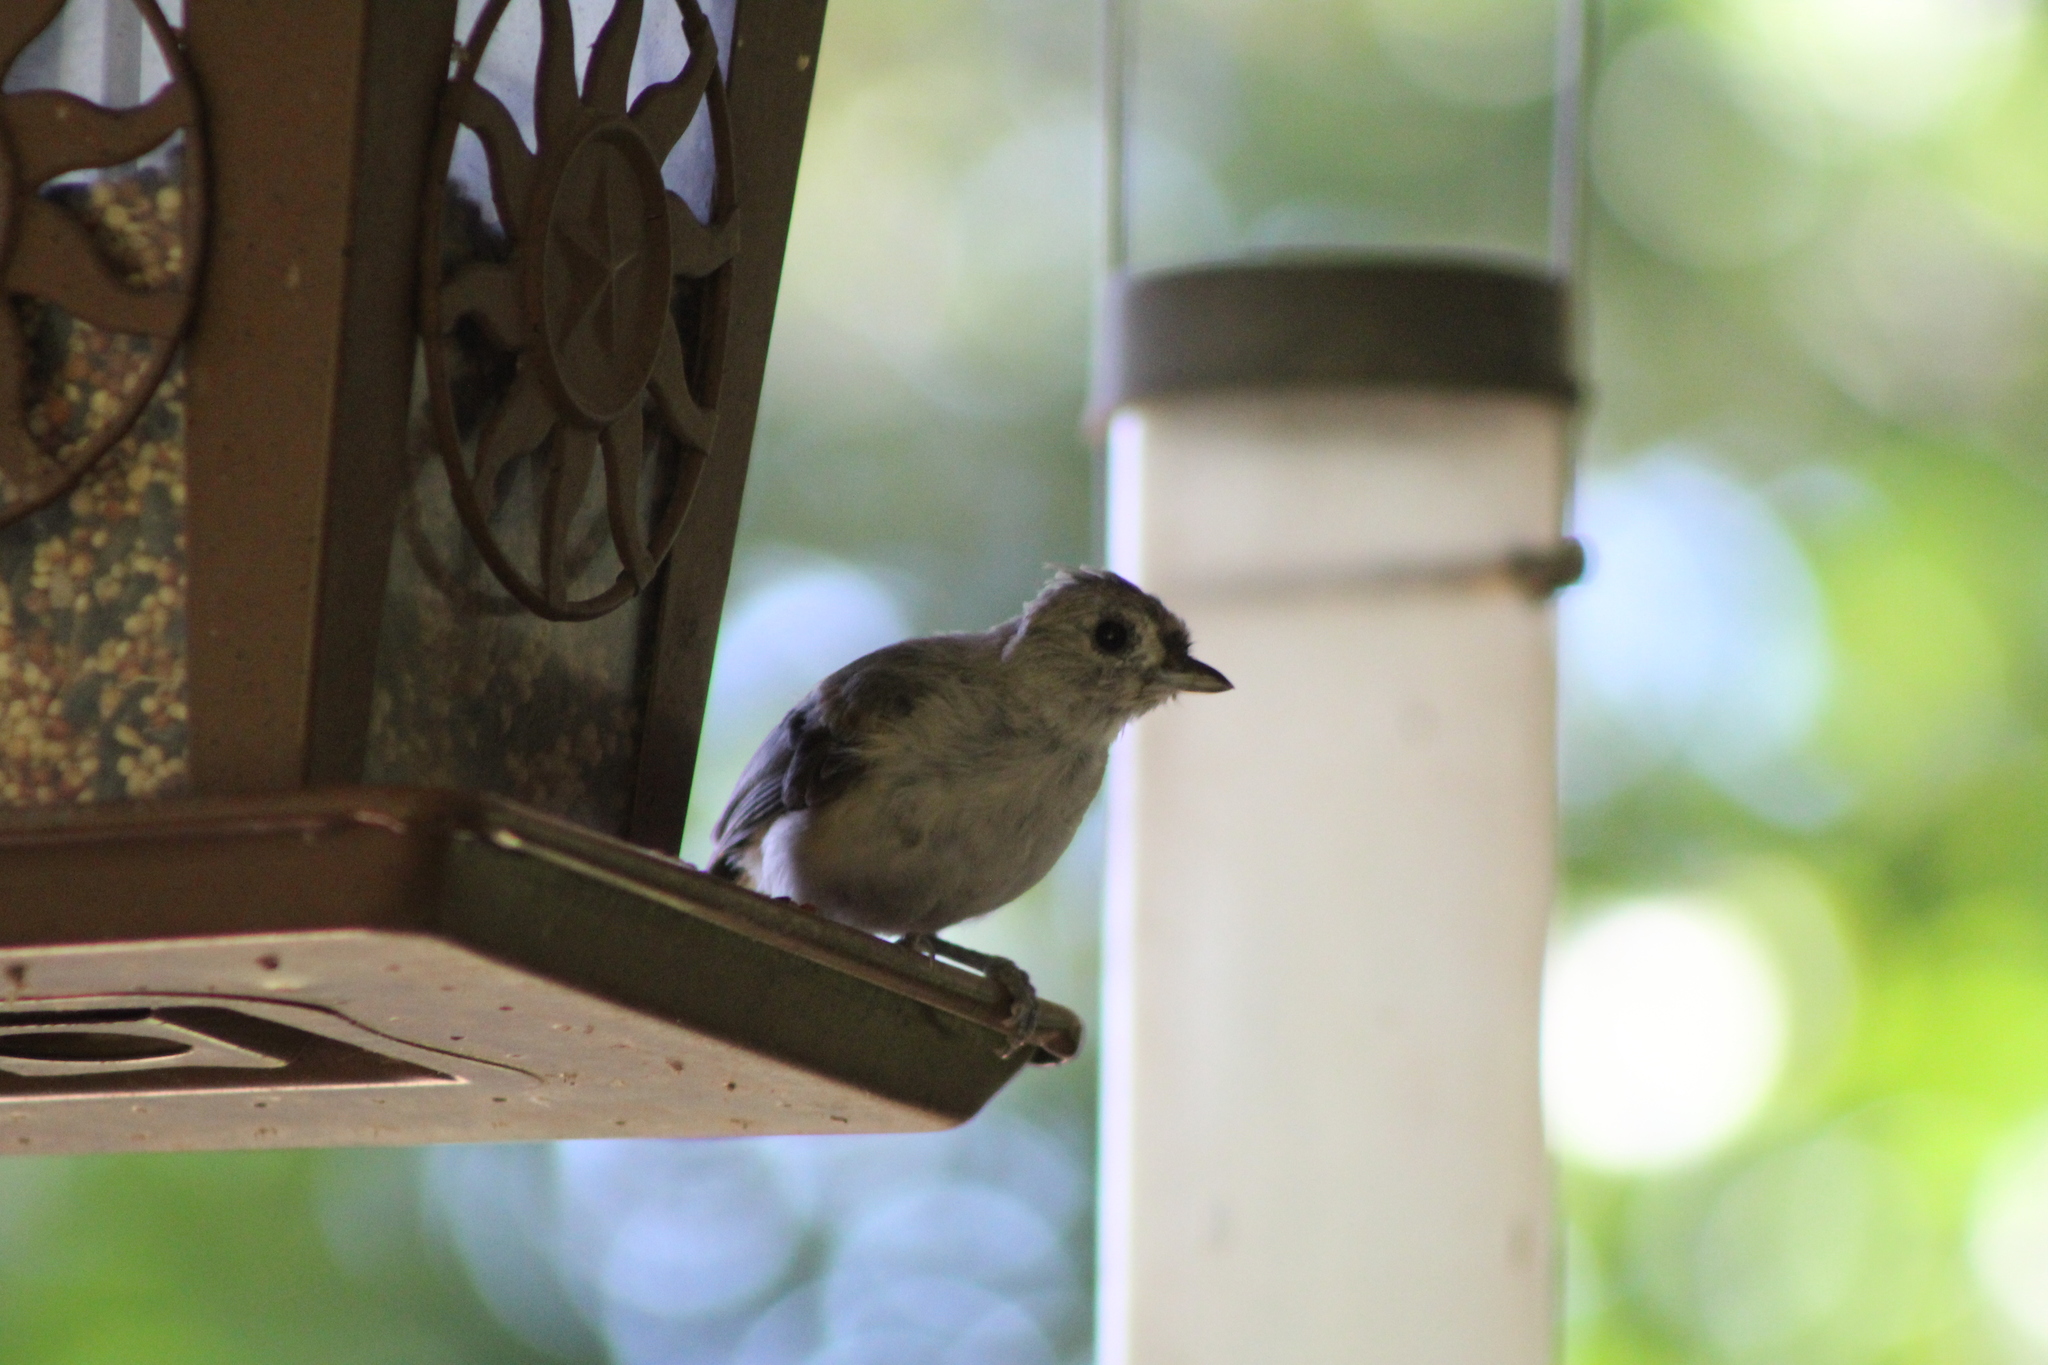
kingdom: Animalia
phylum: Chordata
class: Aves
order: Passeriformes
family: Paridae
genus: Baeolophus
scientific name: Baeolophus bicolor
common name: Tufted titmouse
